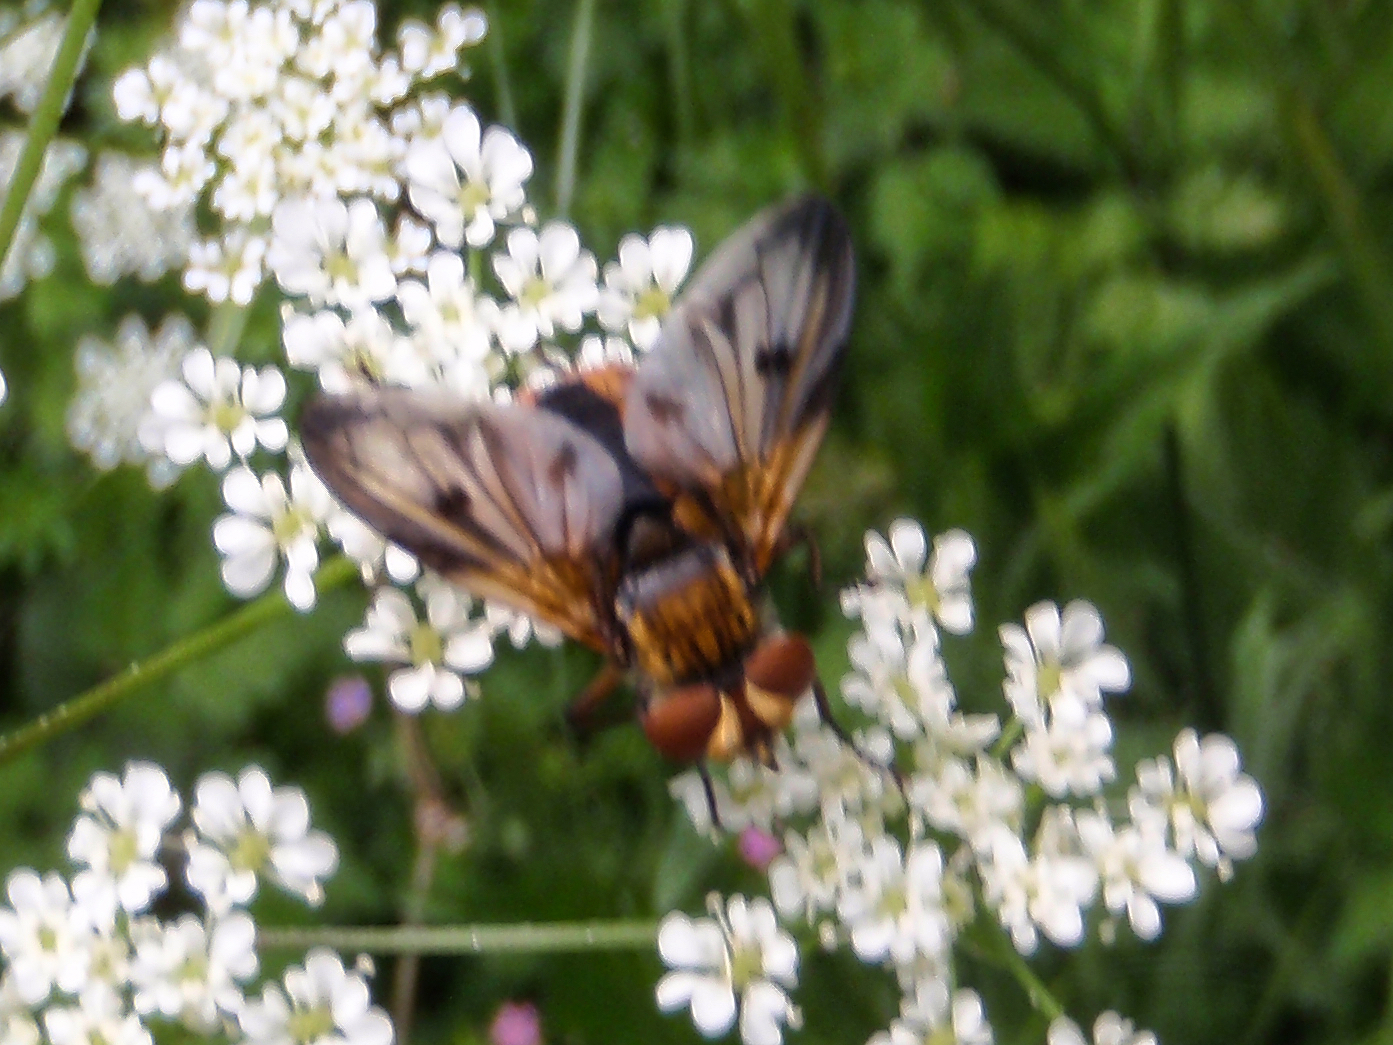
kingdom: Animalia
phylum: Arthropoda
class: Insecta
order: Diptera
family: Tachinidae
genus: Ectophasia
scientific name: Ectophasia
